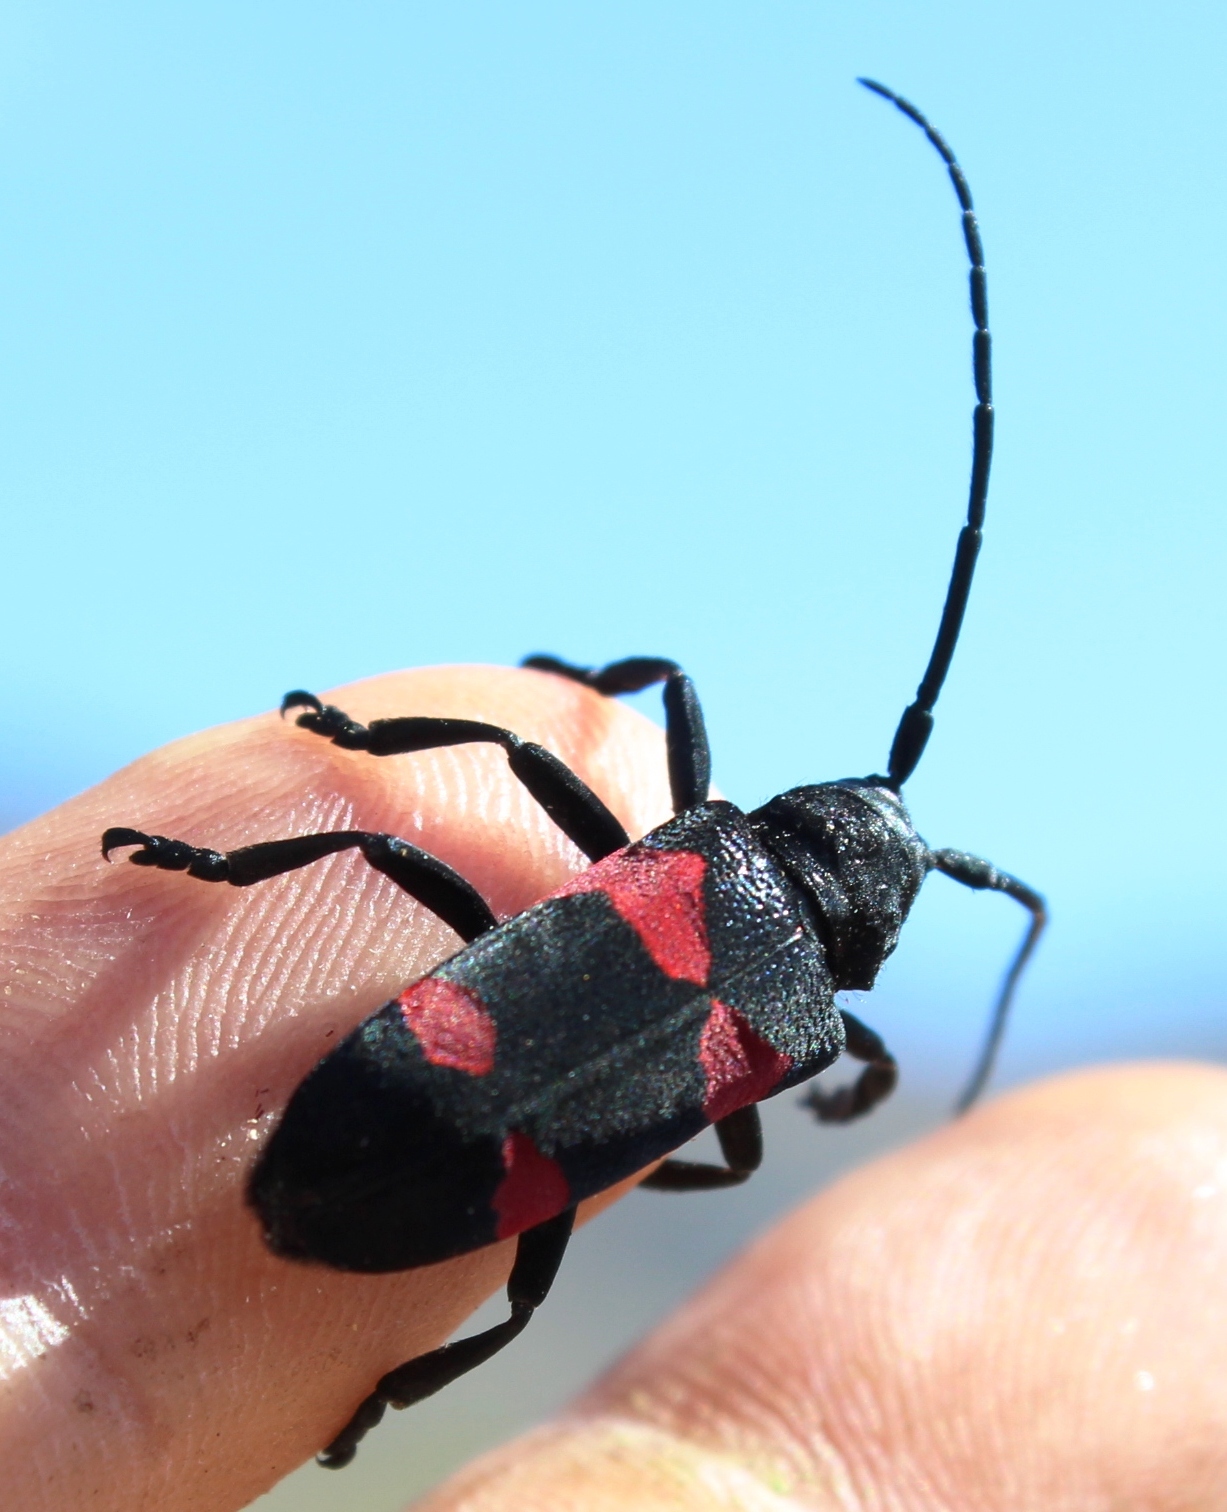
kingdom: Animalia
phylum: Arthropoda
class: Insecta
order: Coleoptera
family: Cerambycidae
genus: Ceroplesis
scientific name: Ceroplesis aethiops
